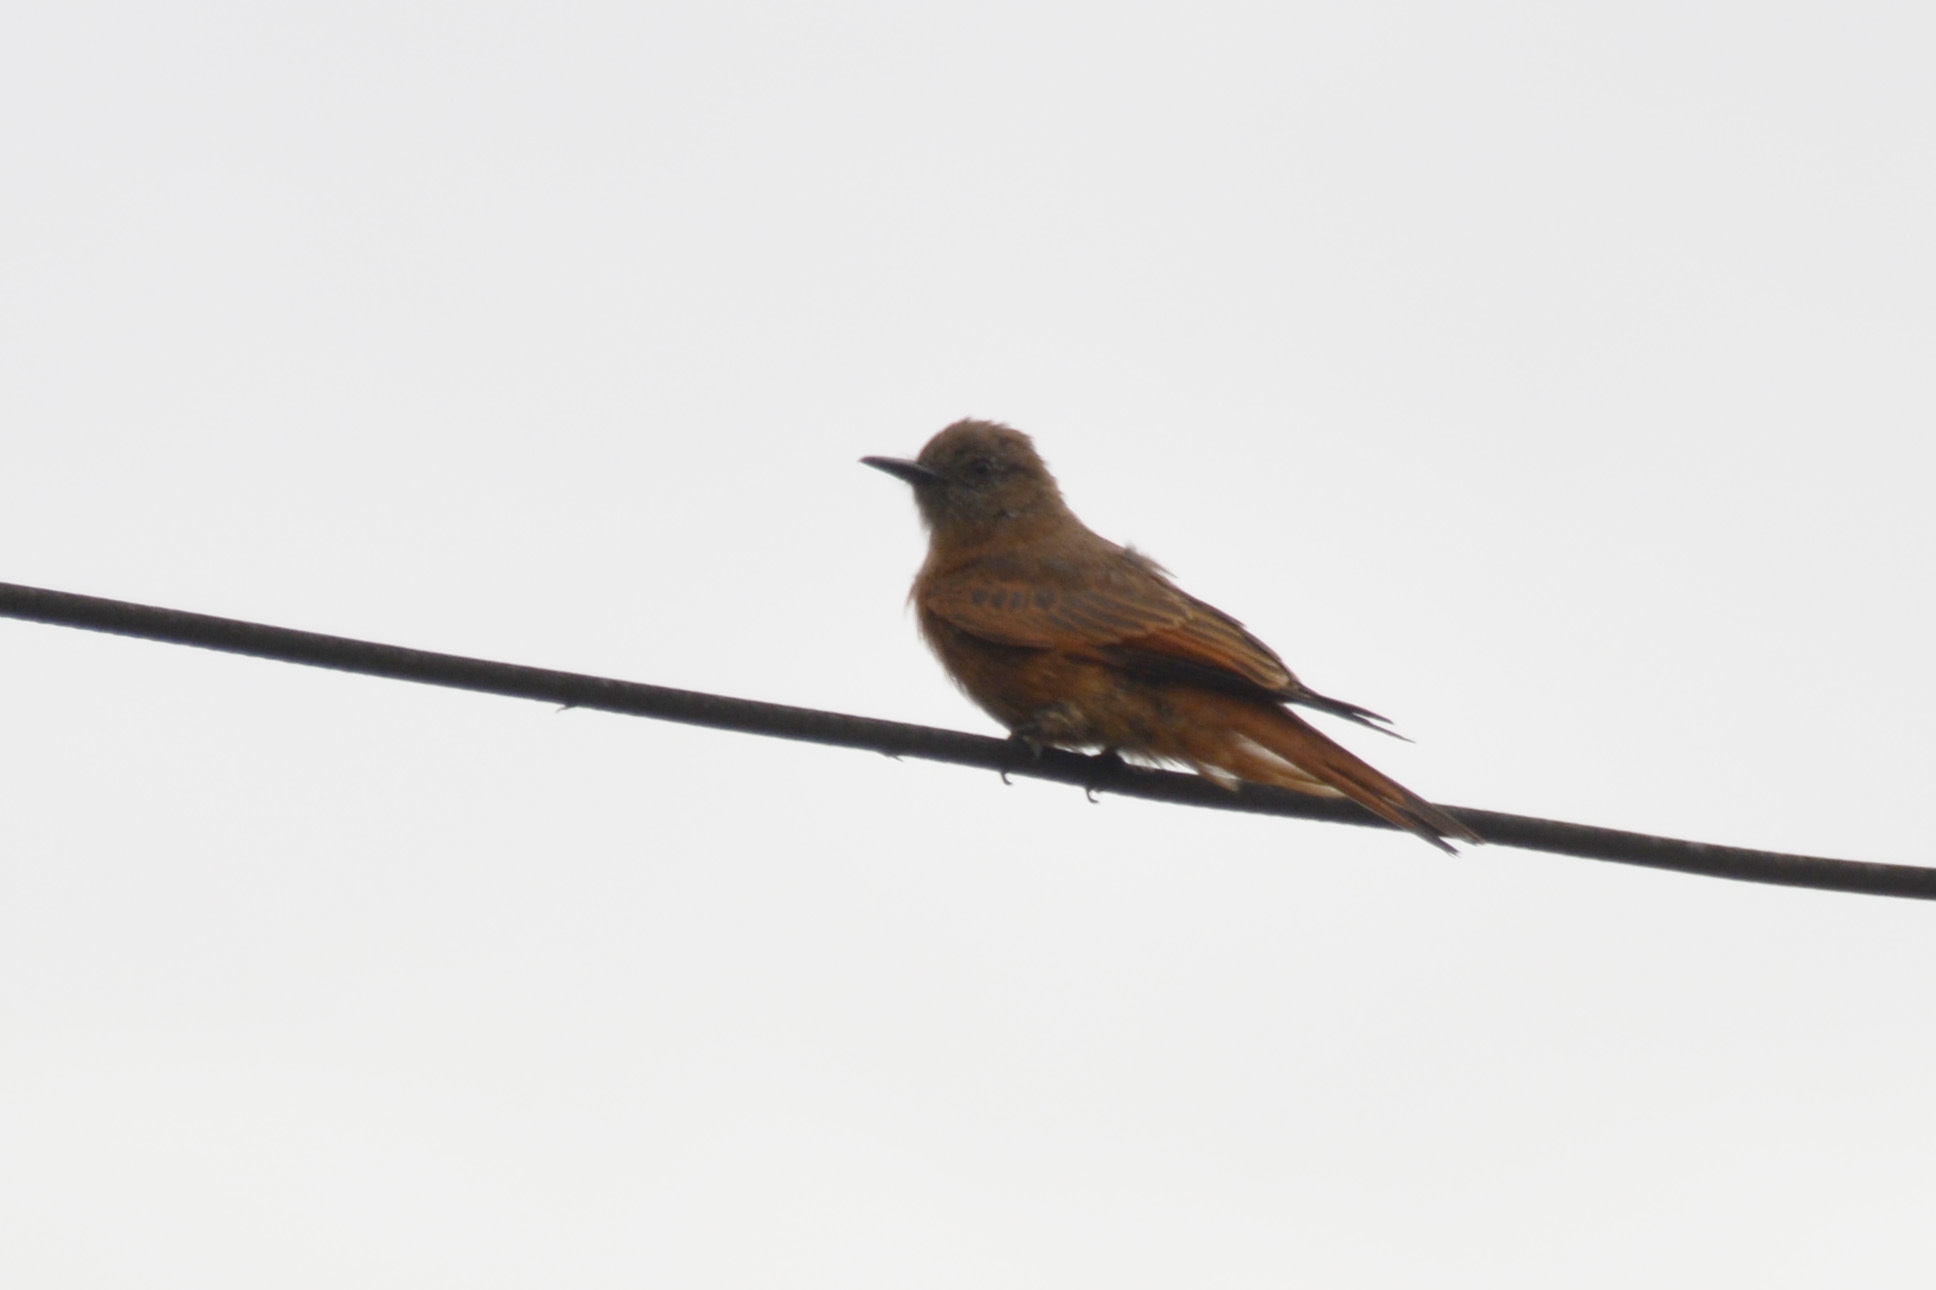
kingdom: Animalia
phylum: Chordata
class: Aves
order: Passeriformes
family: Tyrannidae
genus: Hirundinea
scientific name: Hirundinea ferruginea
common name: Cliff flycatcher
